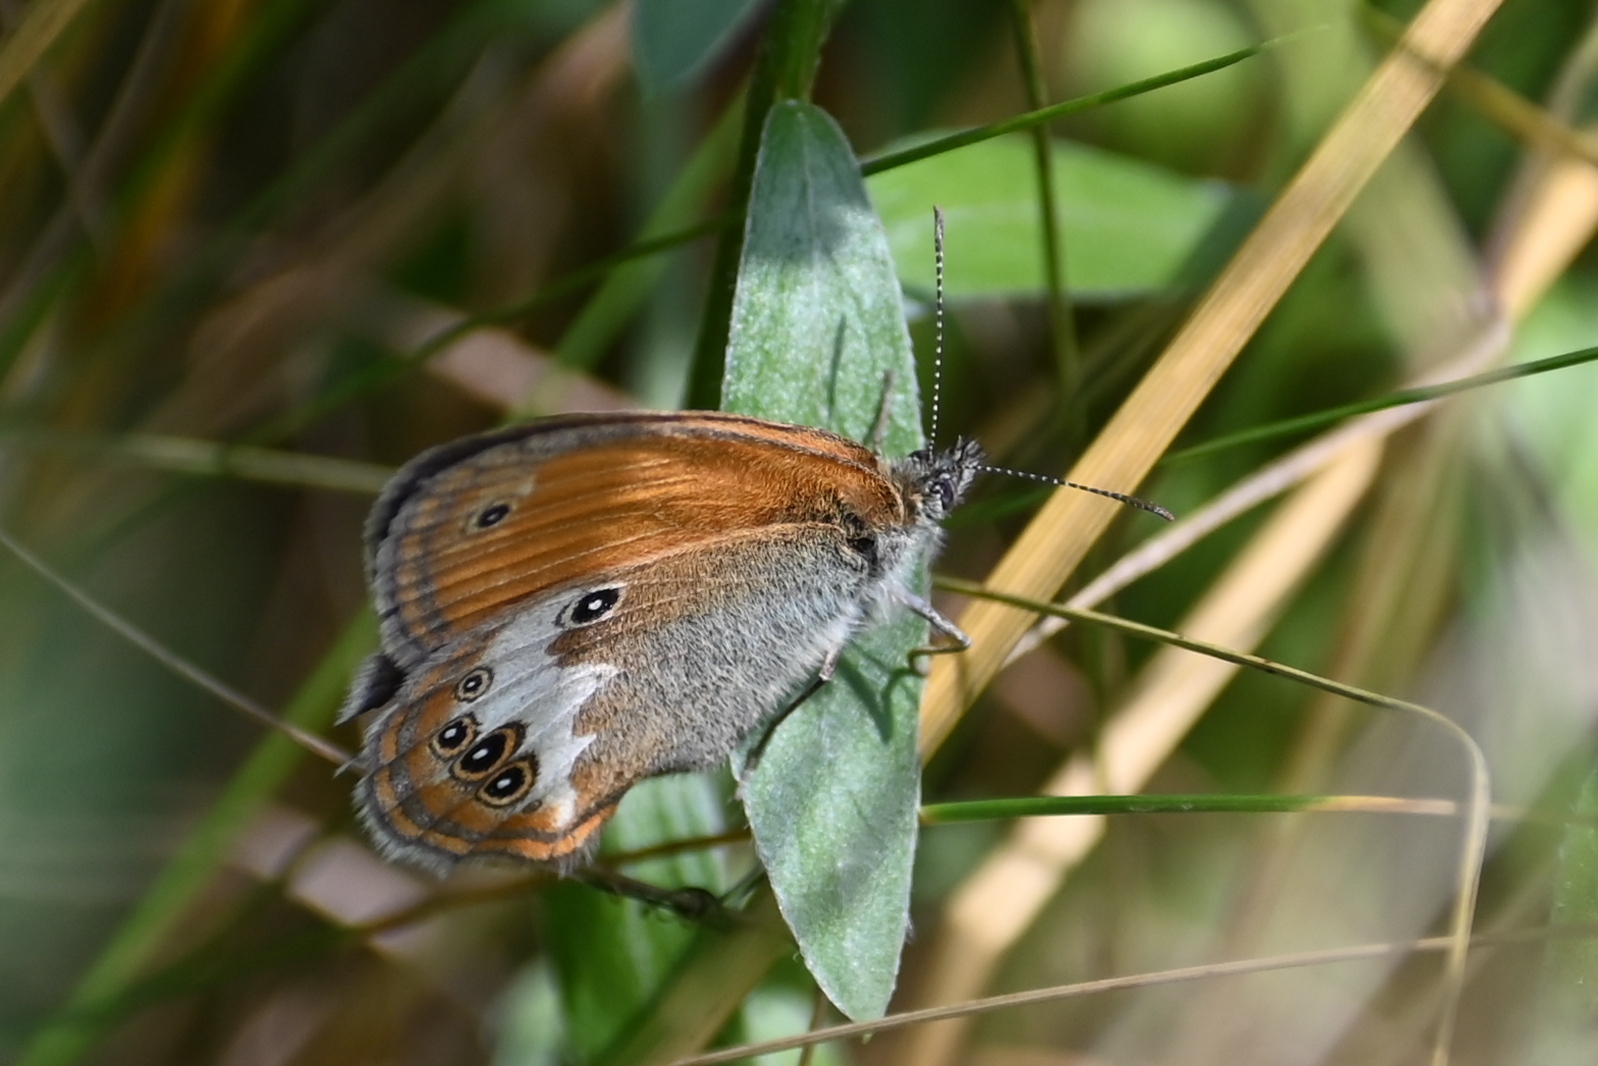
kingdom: Animalia
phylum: Arthropoda
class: Insecta
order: Lepidoptera
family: Nymphalidae
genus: Coenonympha
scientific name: Coenonympha arcania
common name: Pearly heath
